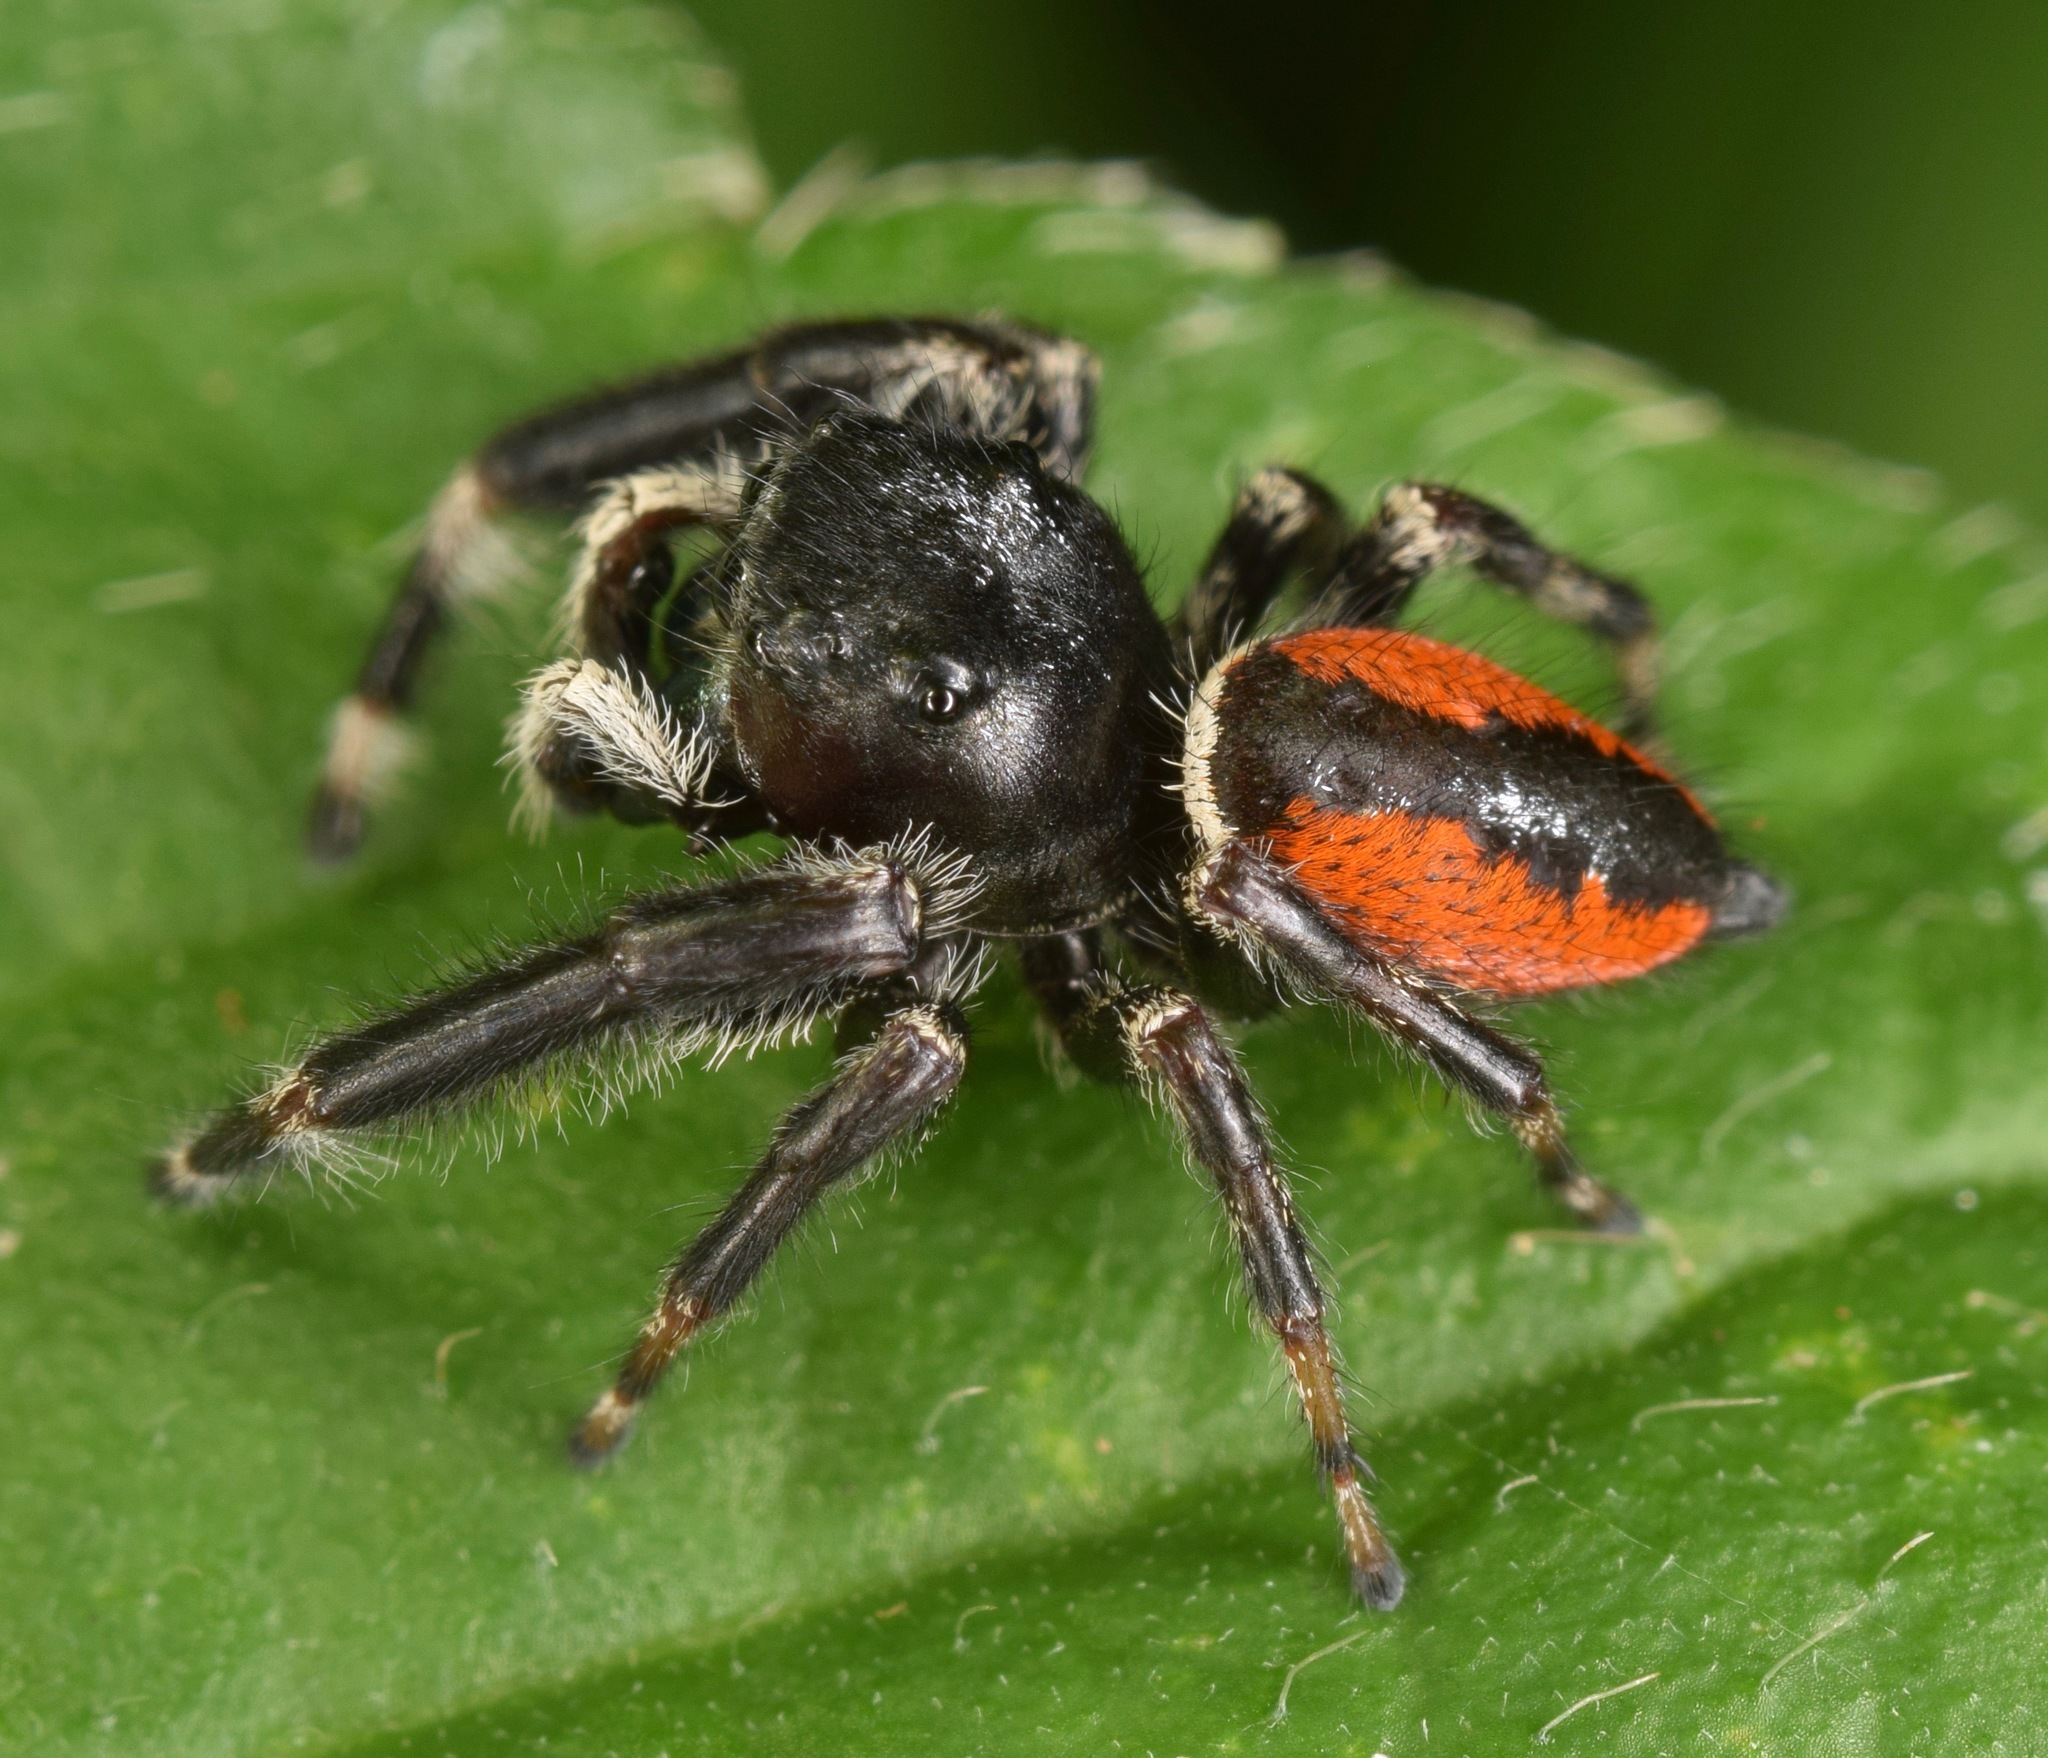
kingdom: Animalia
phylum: Arthropoda
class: Arachnida
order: Araneae
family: Salticidae
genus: Phidippus
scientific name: Phidippus clarus
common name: Brilliant jumping spider
